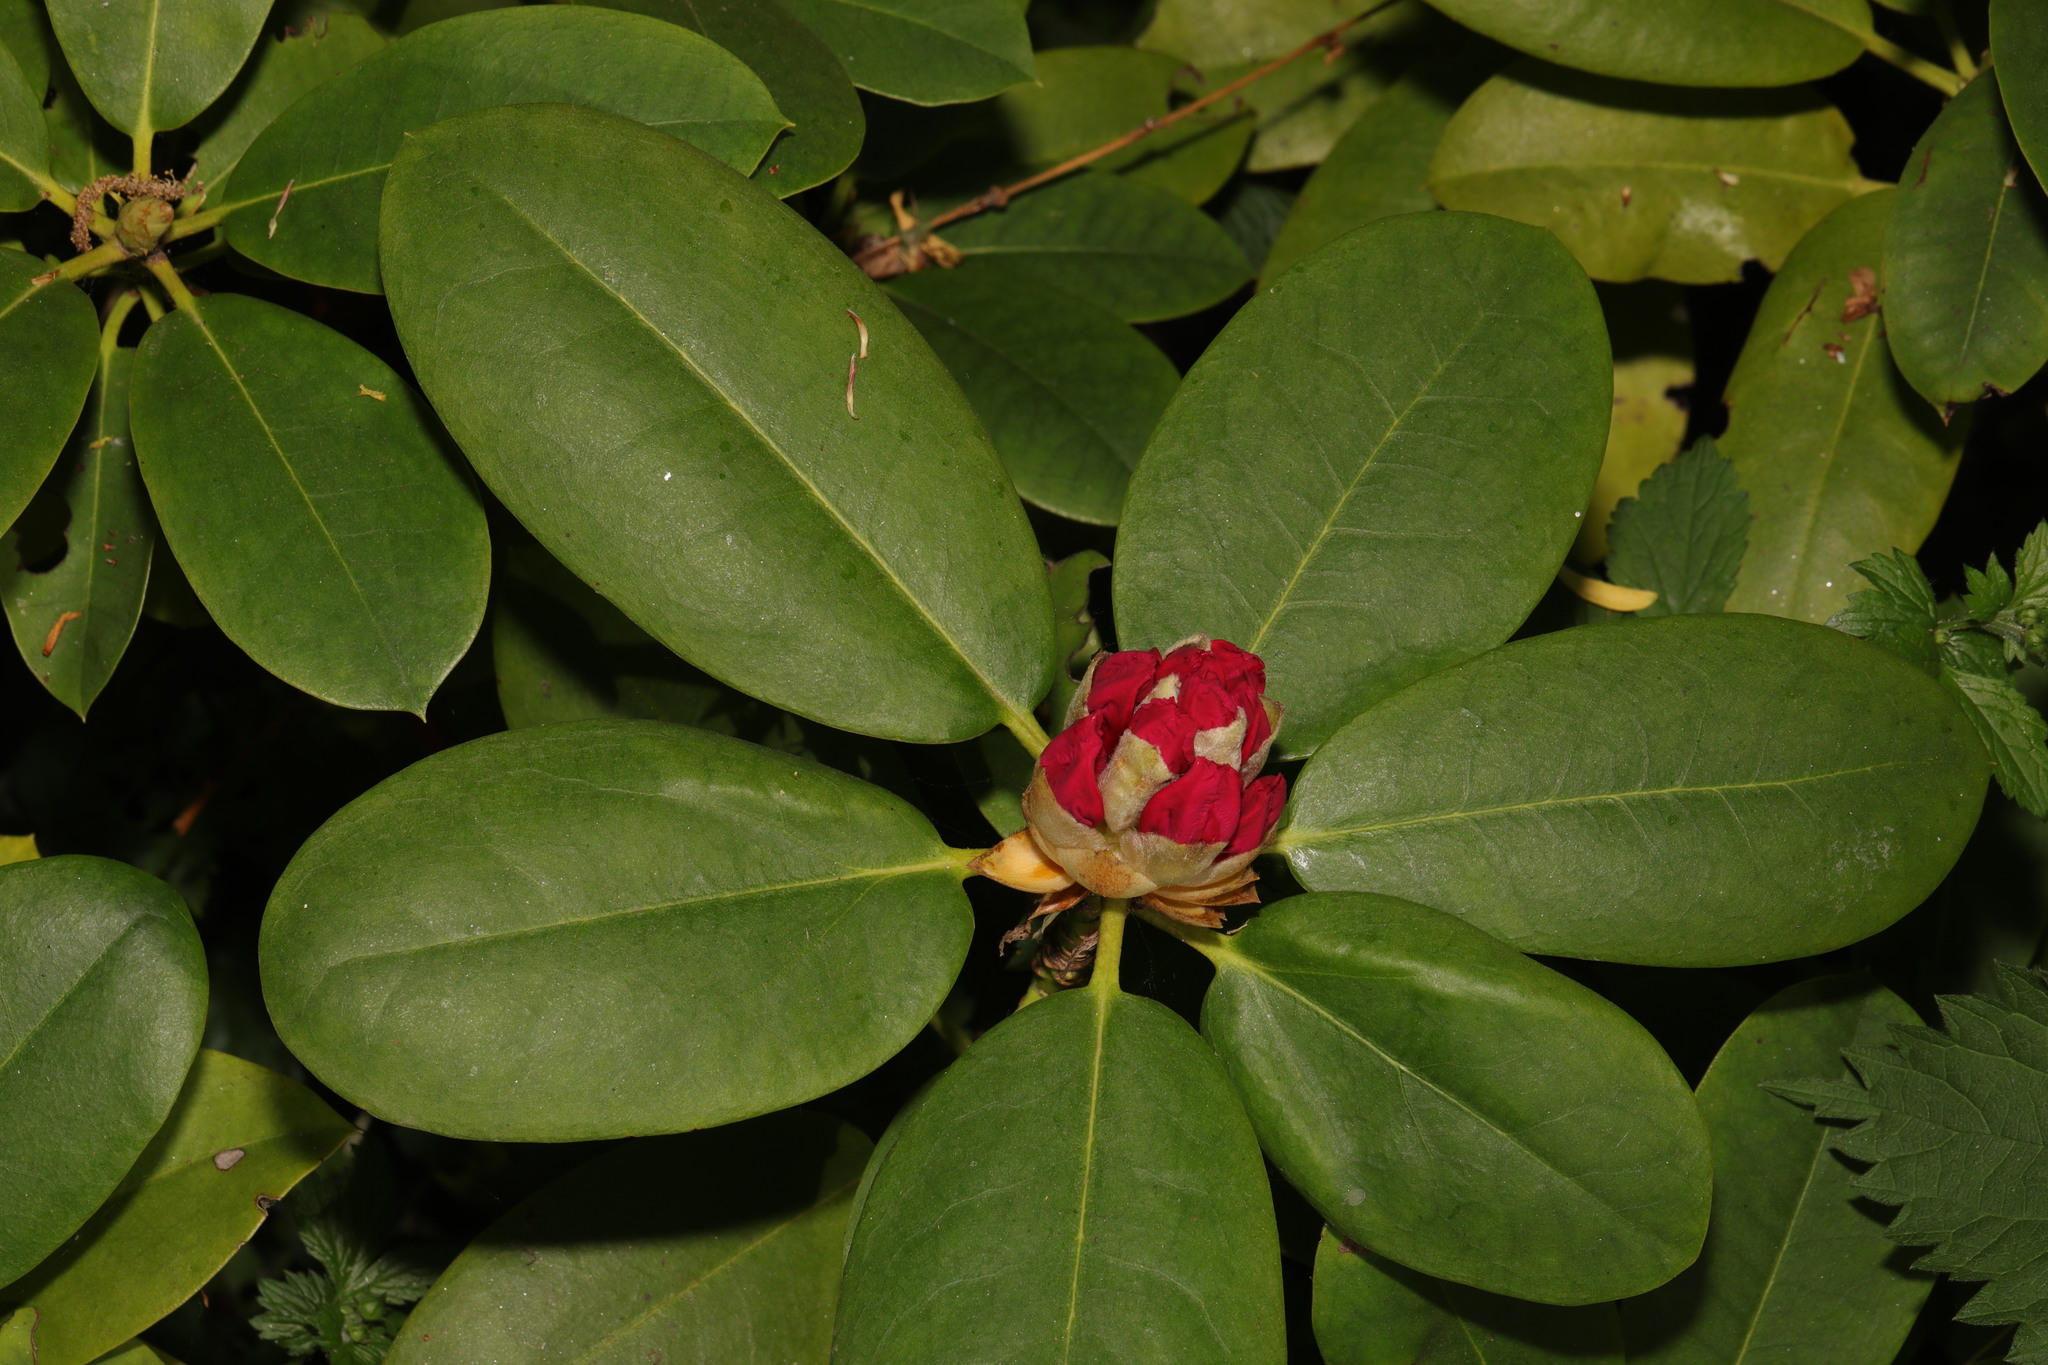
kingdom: Plantae
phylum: Tracheophyta
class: Magnoliopsida
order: Ericales
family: Ericaceae
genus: Rhododendron
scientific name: Rhododendron
